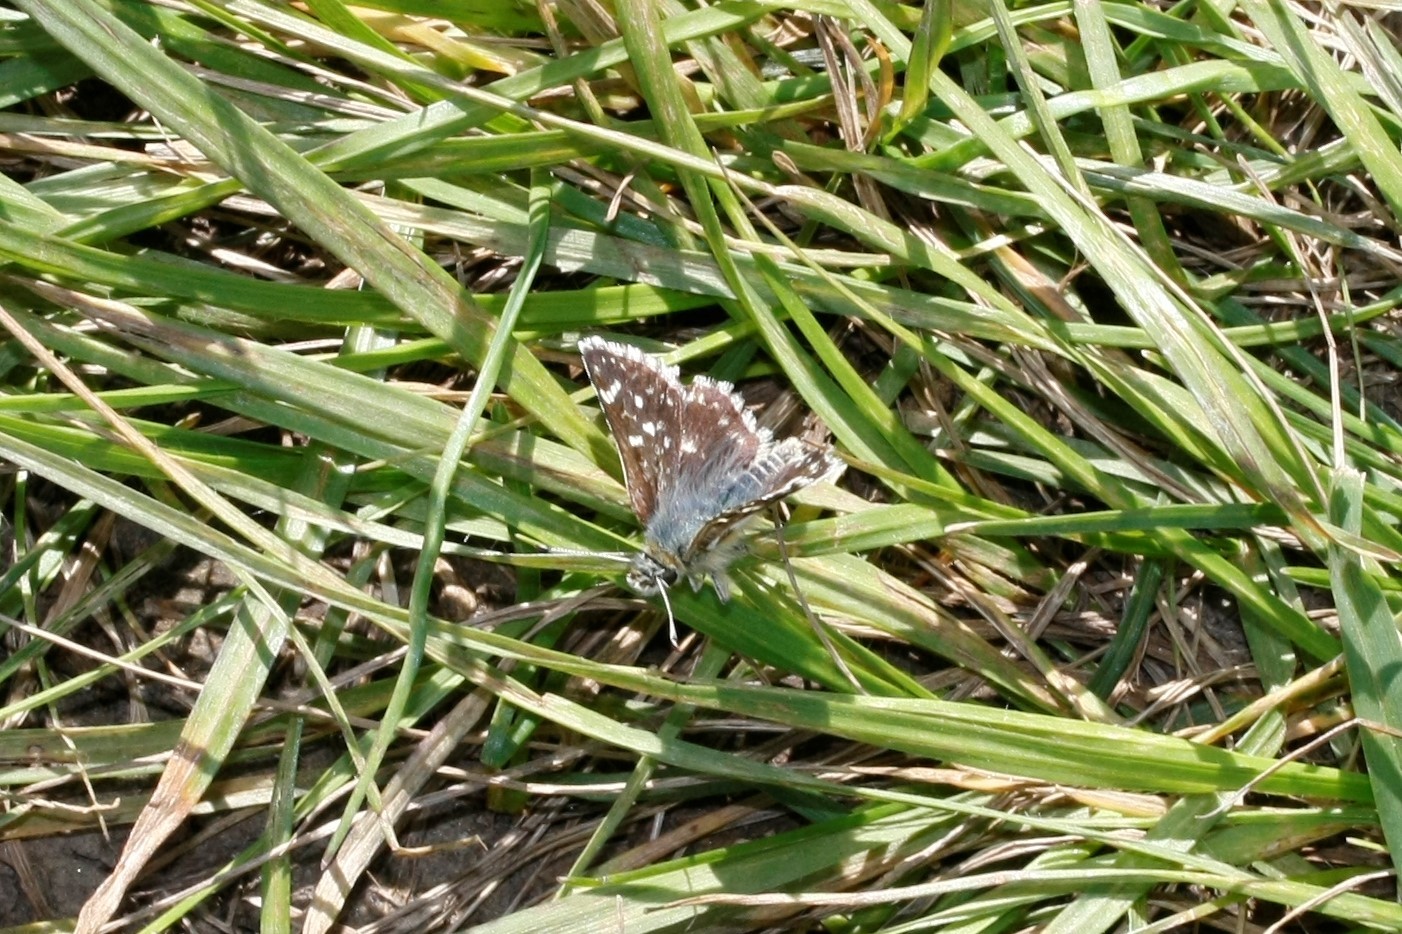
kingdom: Animalia
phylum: Arthropoda
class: Insecta
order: Lepidoptera
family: Hesperiidae
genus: Spialia
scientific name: Spialia sertorius
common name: Red underwing skipper
